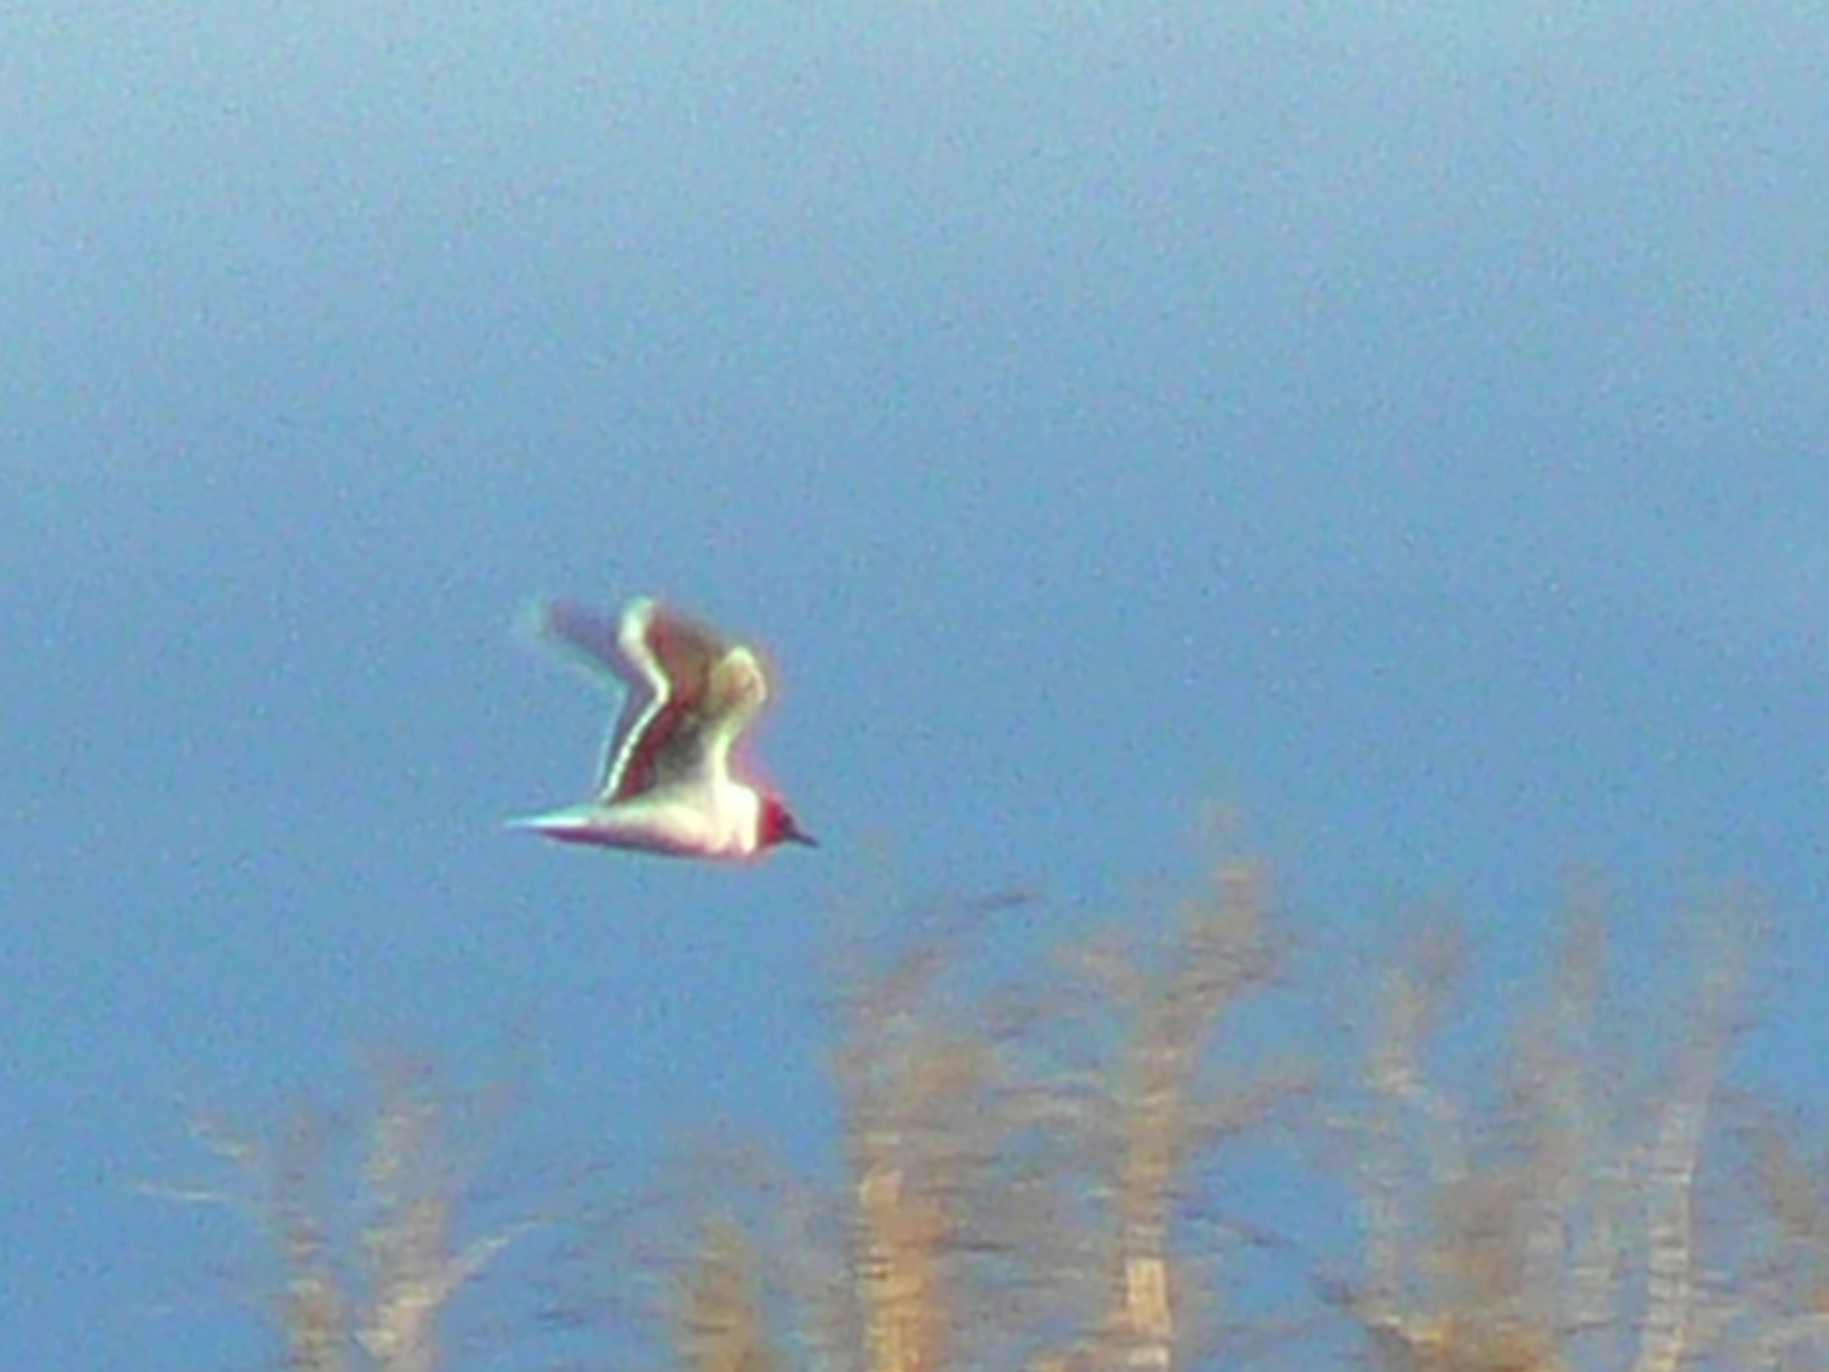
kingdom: Animalia
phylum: Chordata
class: Aves
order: Charadriiformes
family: Laridae
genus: Hydrocoloeus
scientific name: Hydrocoloeus minutus
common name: Little gull
